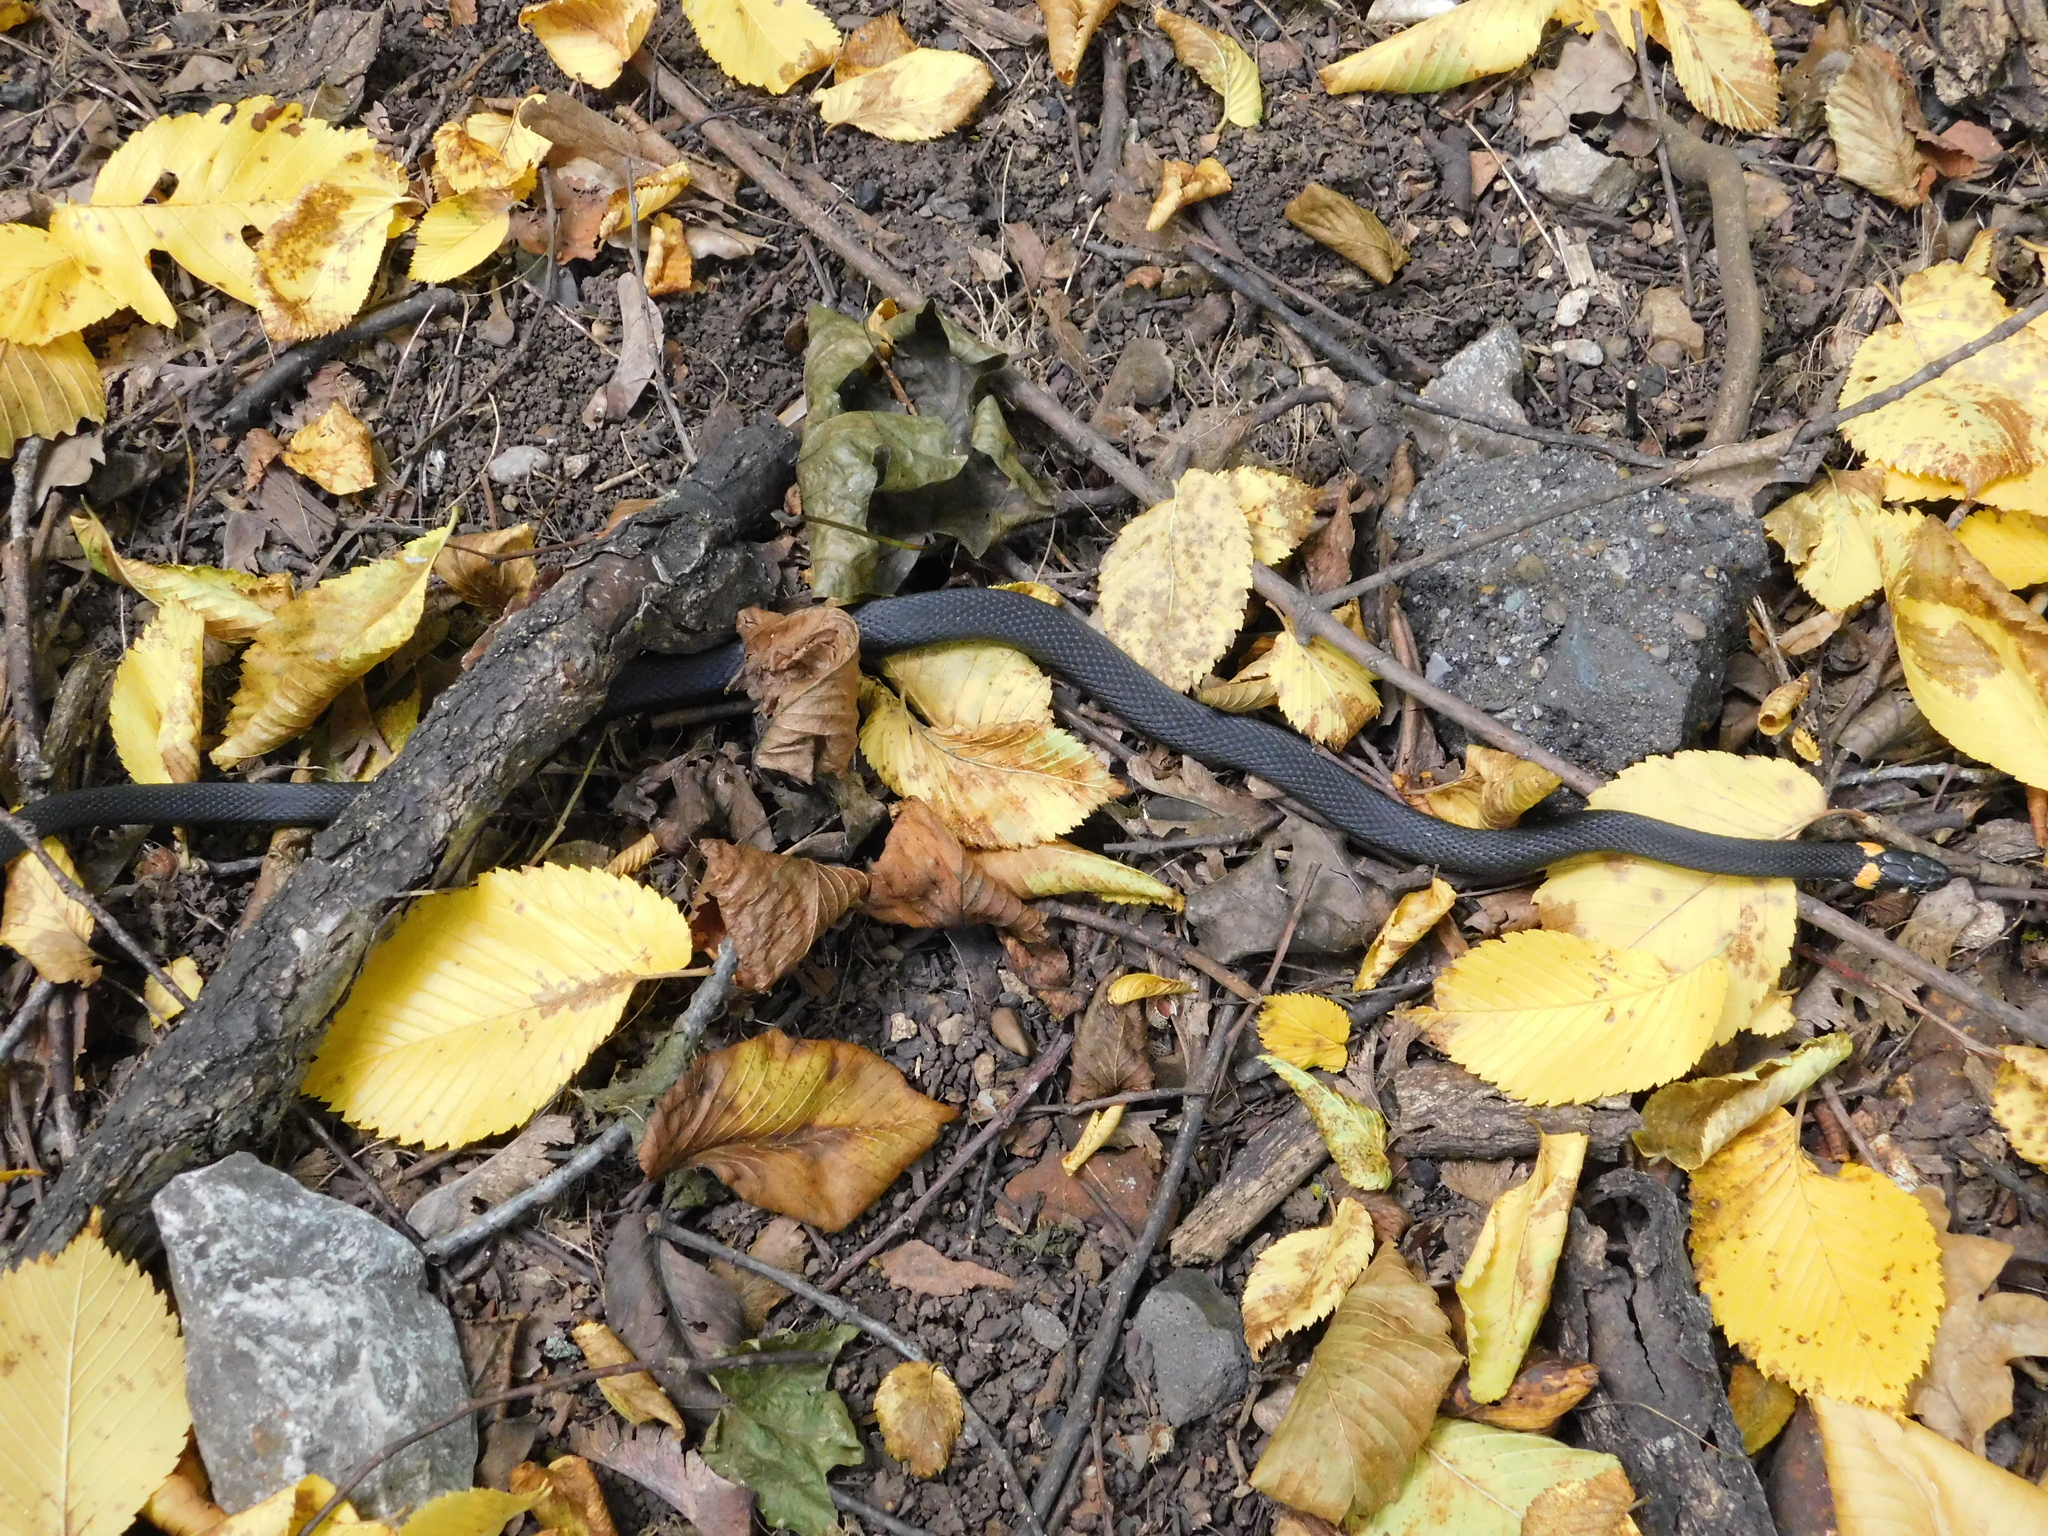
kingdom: Animalia
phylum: Chordata
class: Squamata
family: Colubridae
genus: Natrix
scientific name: Natrix natrix
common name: Grass snake
